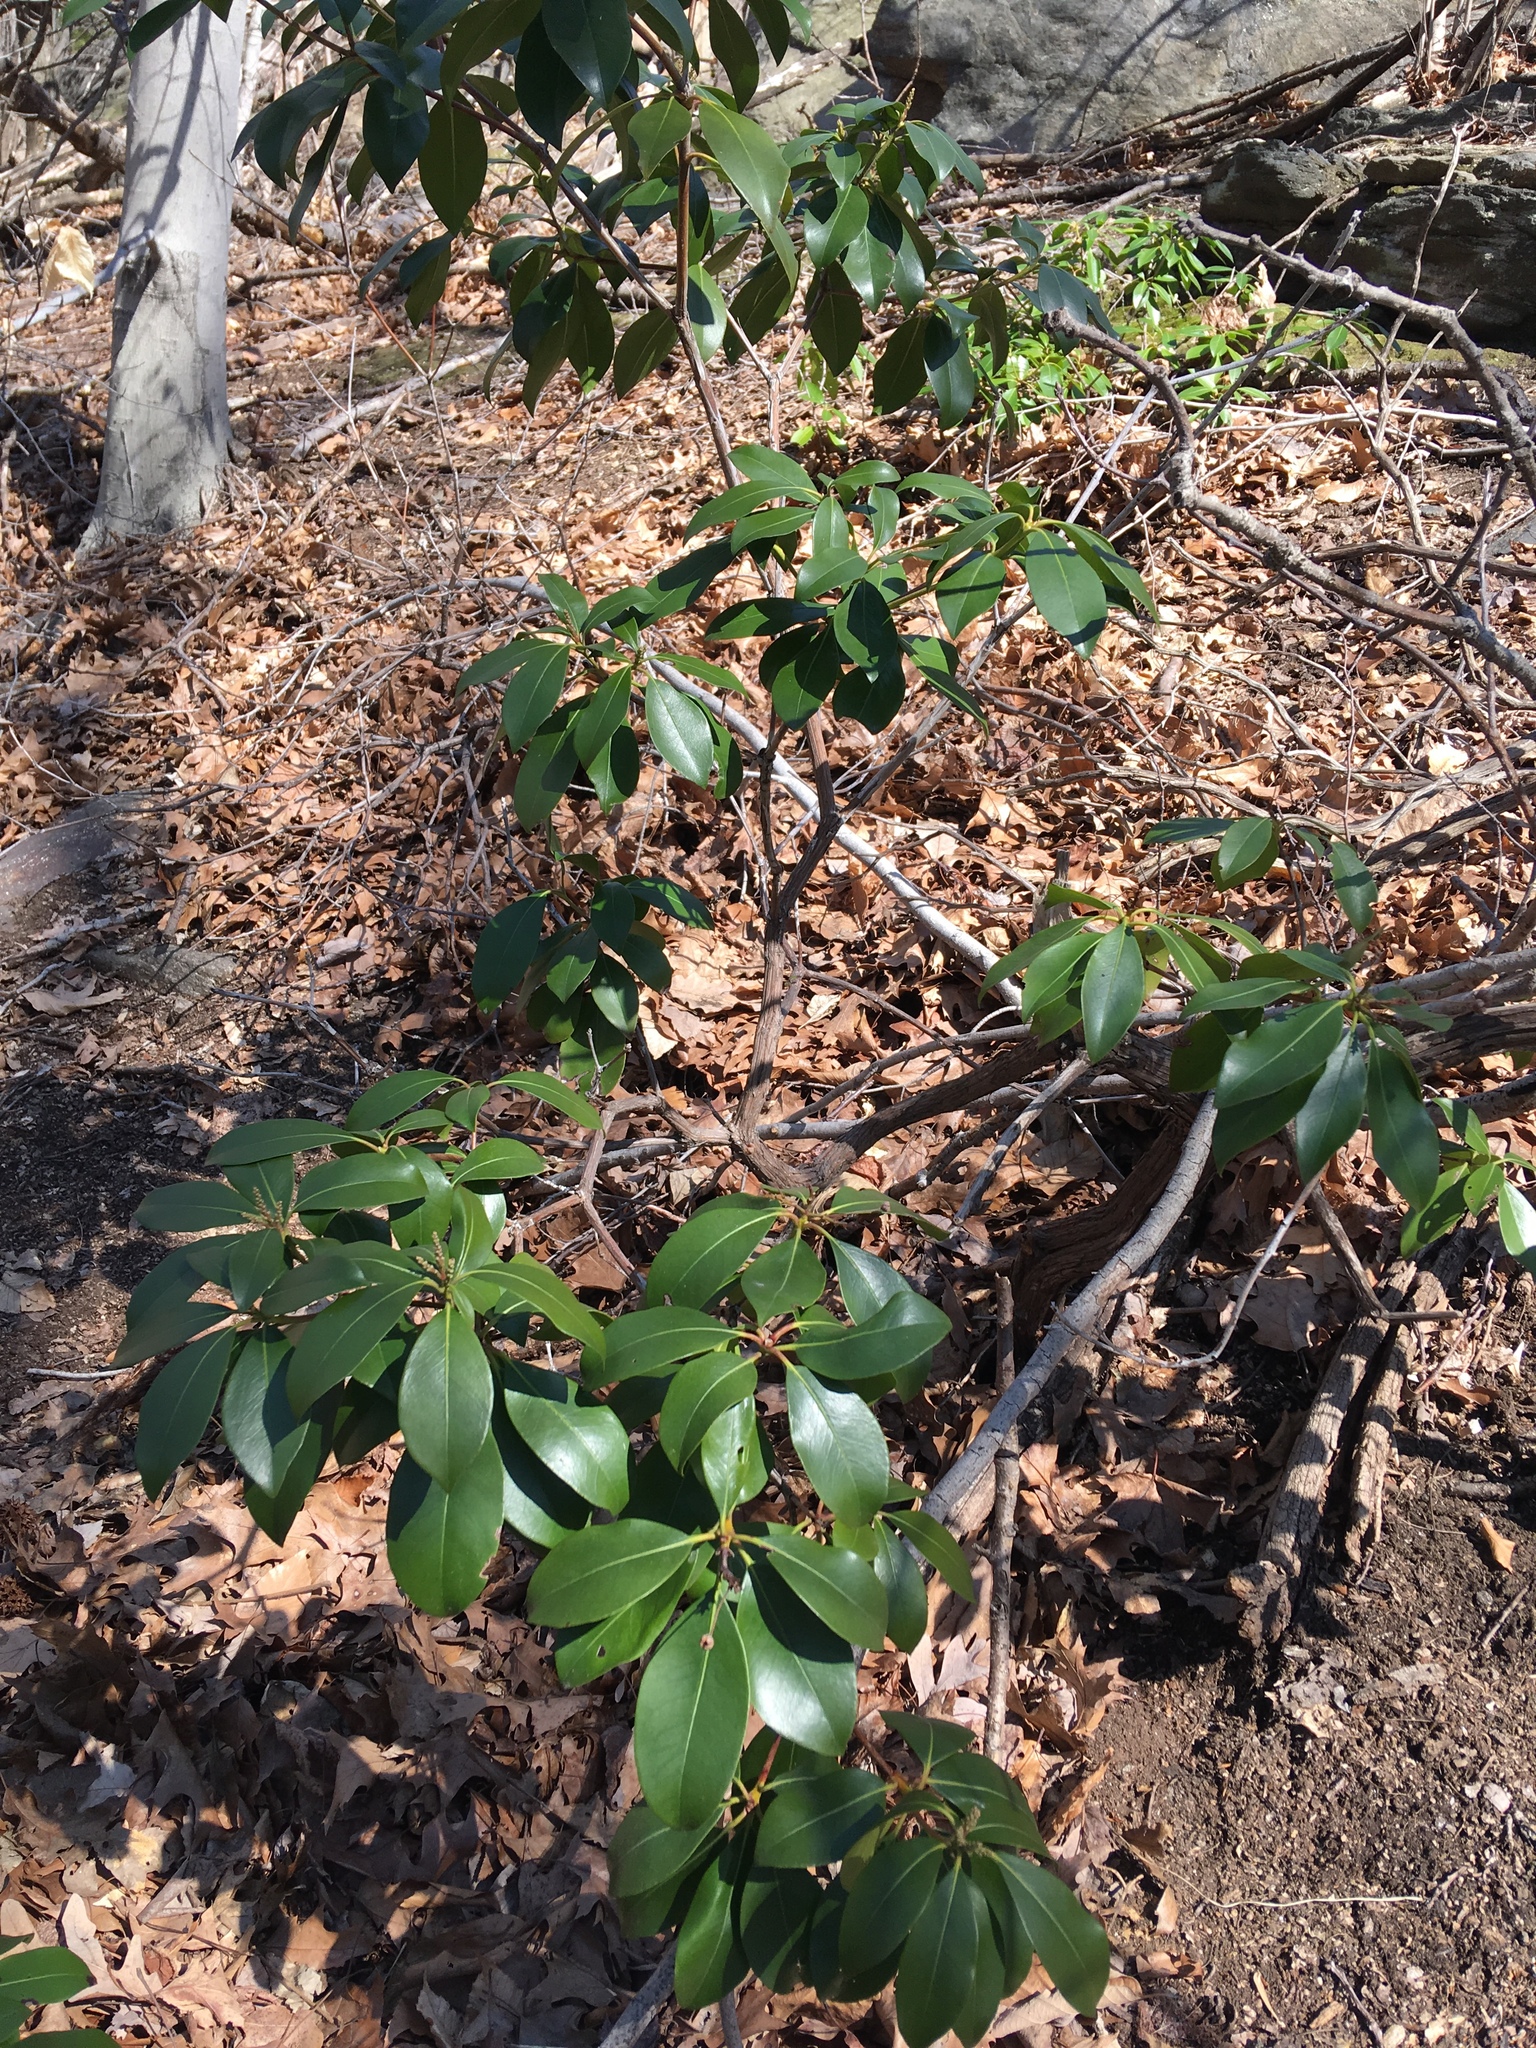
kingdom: Plantae
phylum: Tracheophyta
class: Magnoliopsida
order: Ericales
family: Ericaceae
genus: Kalmia
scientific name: Kalmia latifolia
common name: Mountain-laurel
